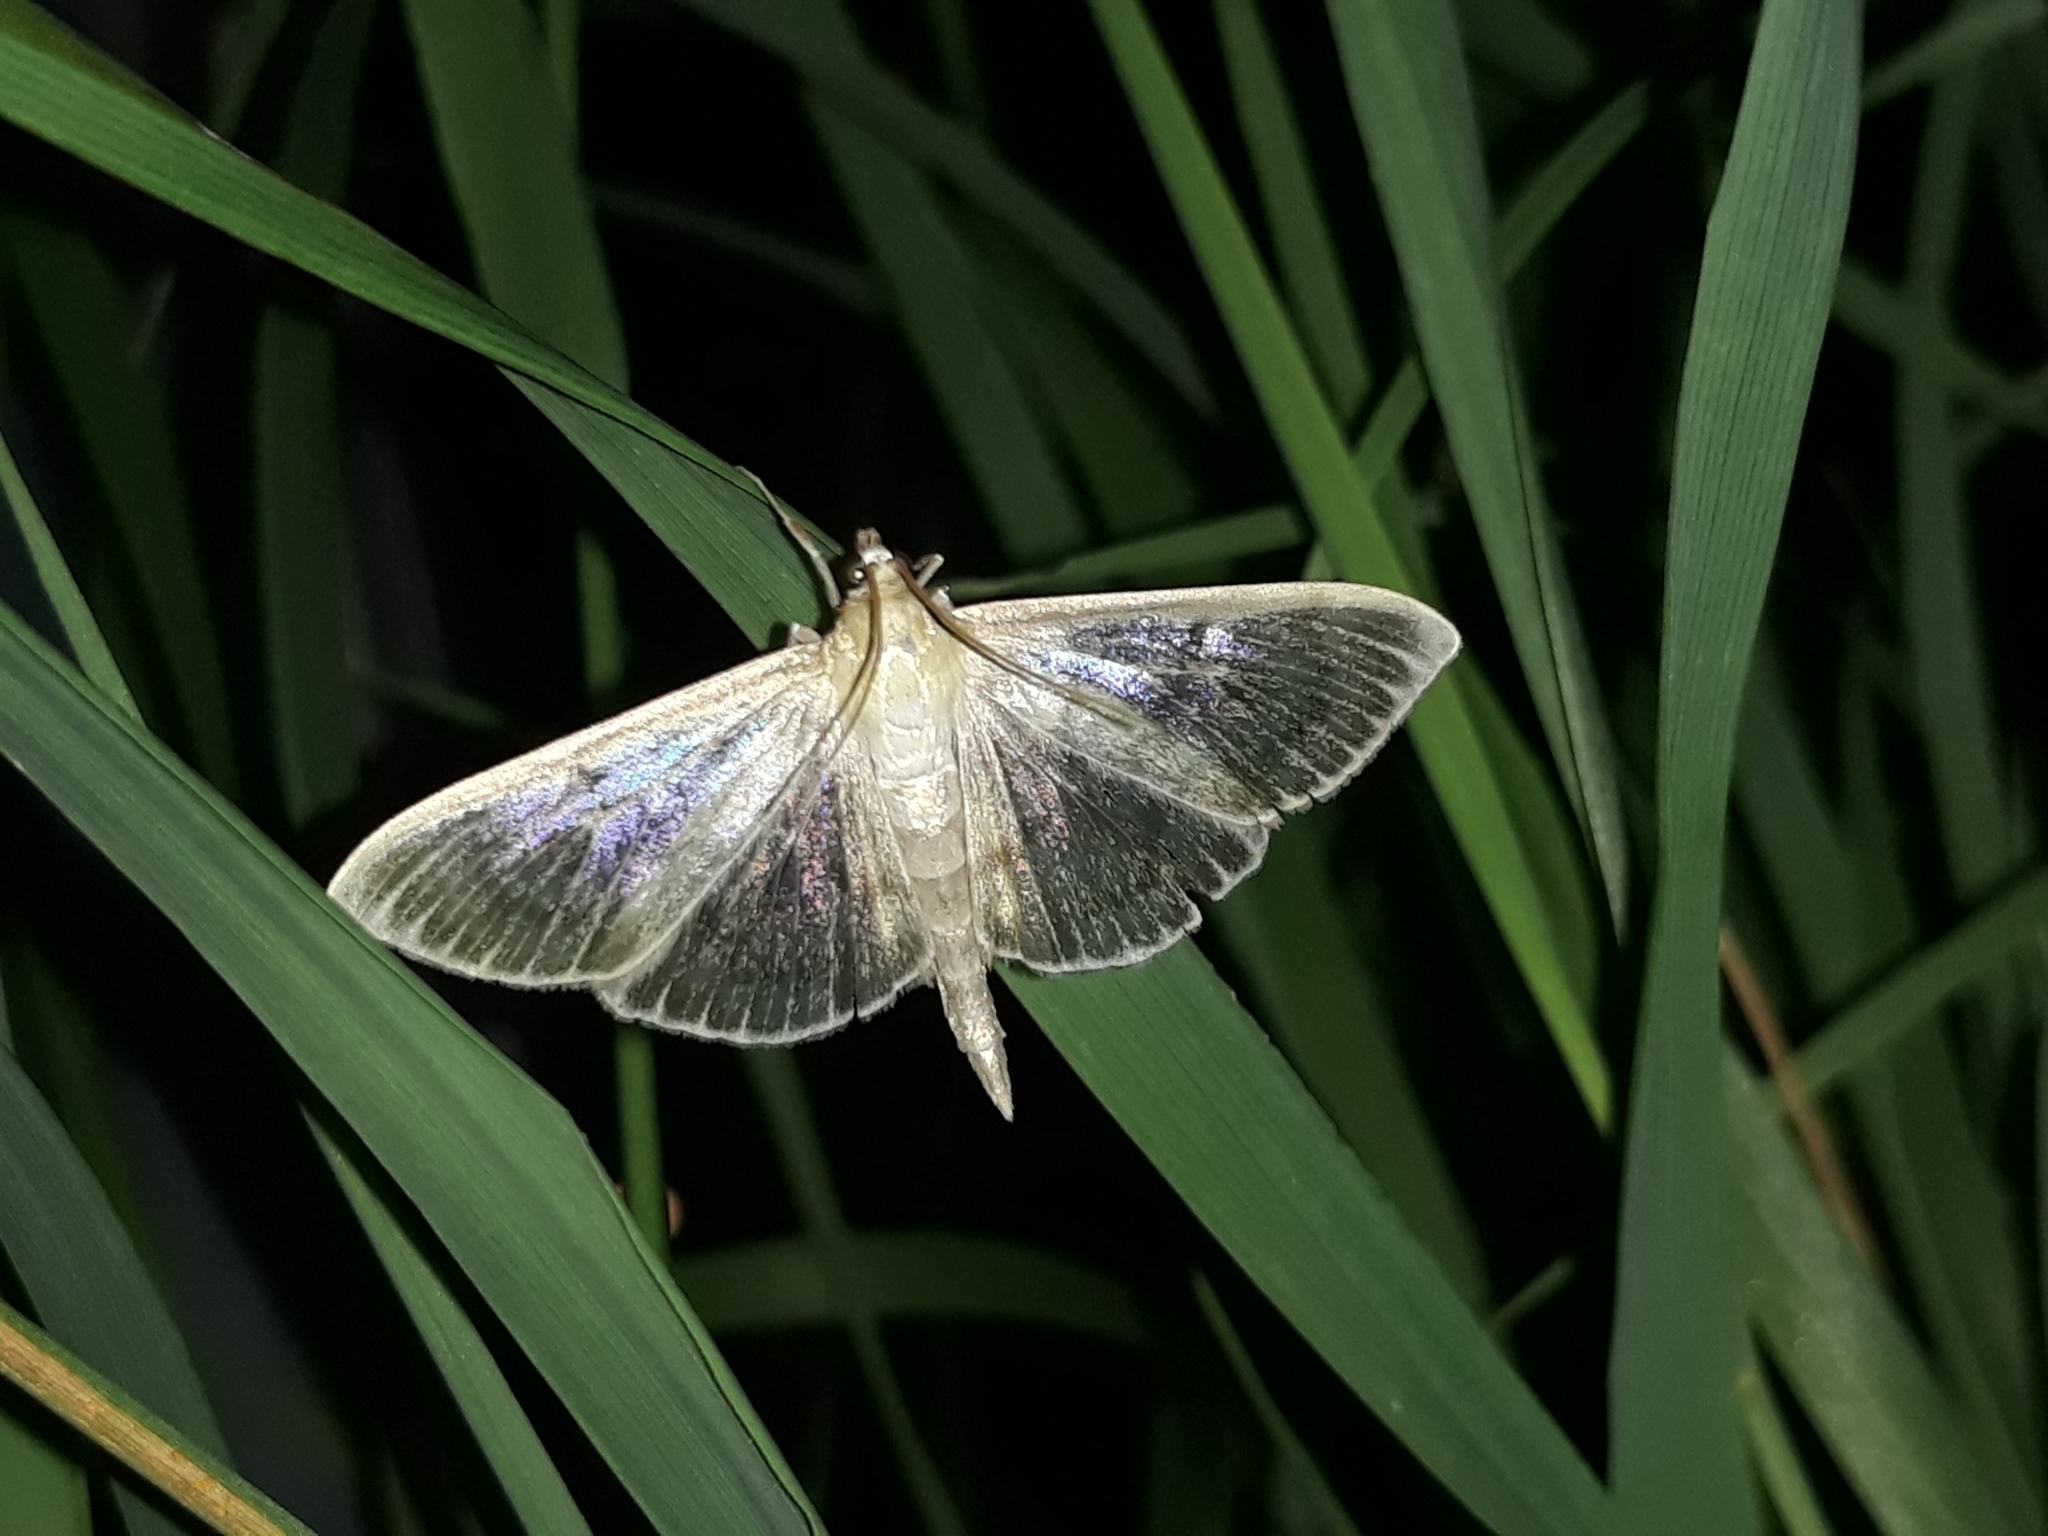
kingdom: Animalia
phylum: Arthropoda
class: Insecta
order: Lepidoptera
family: Crambidae
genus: Patania
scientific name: Patania ruralis
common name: Mother of pearl
